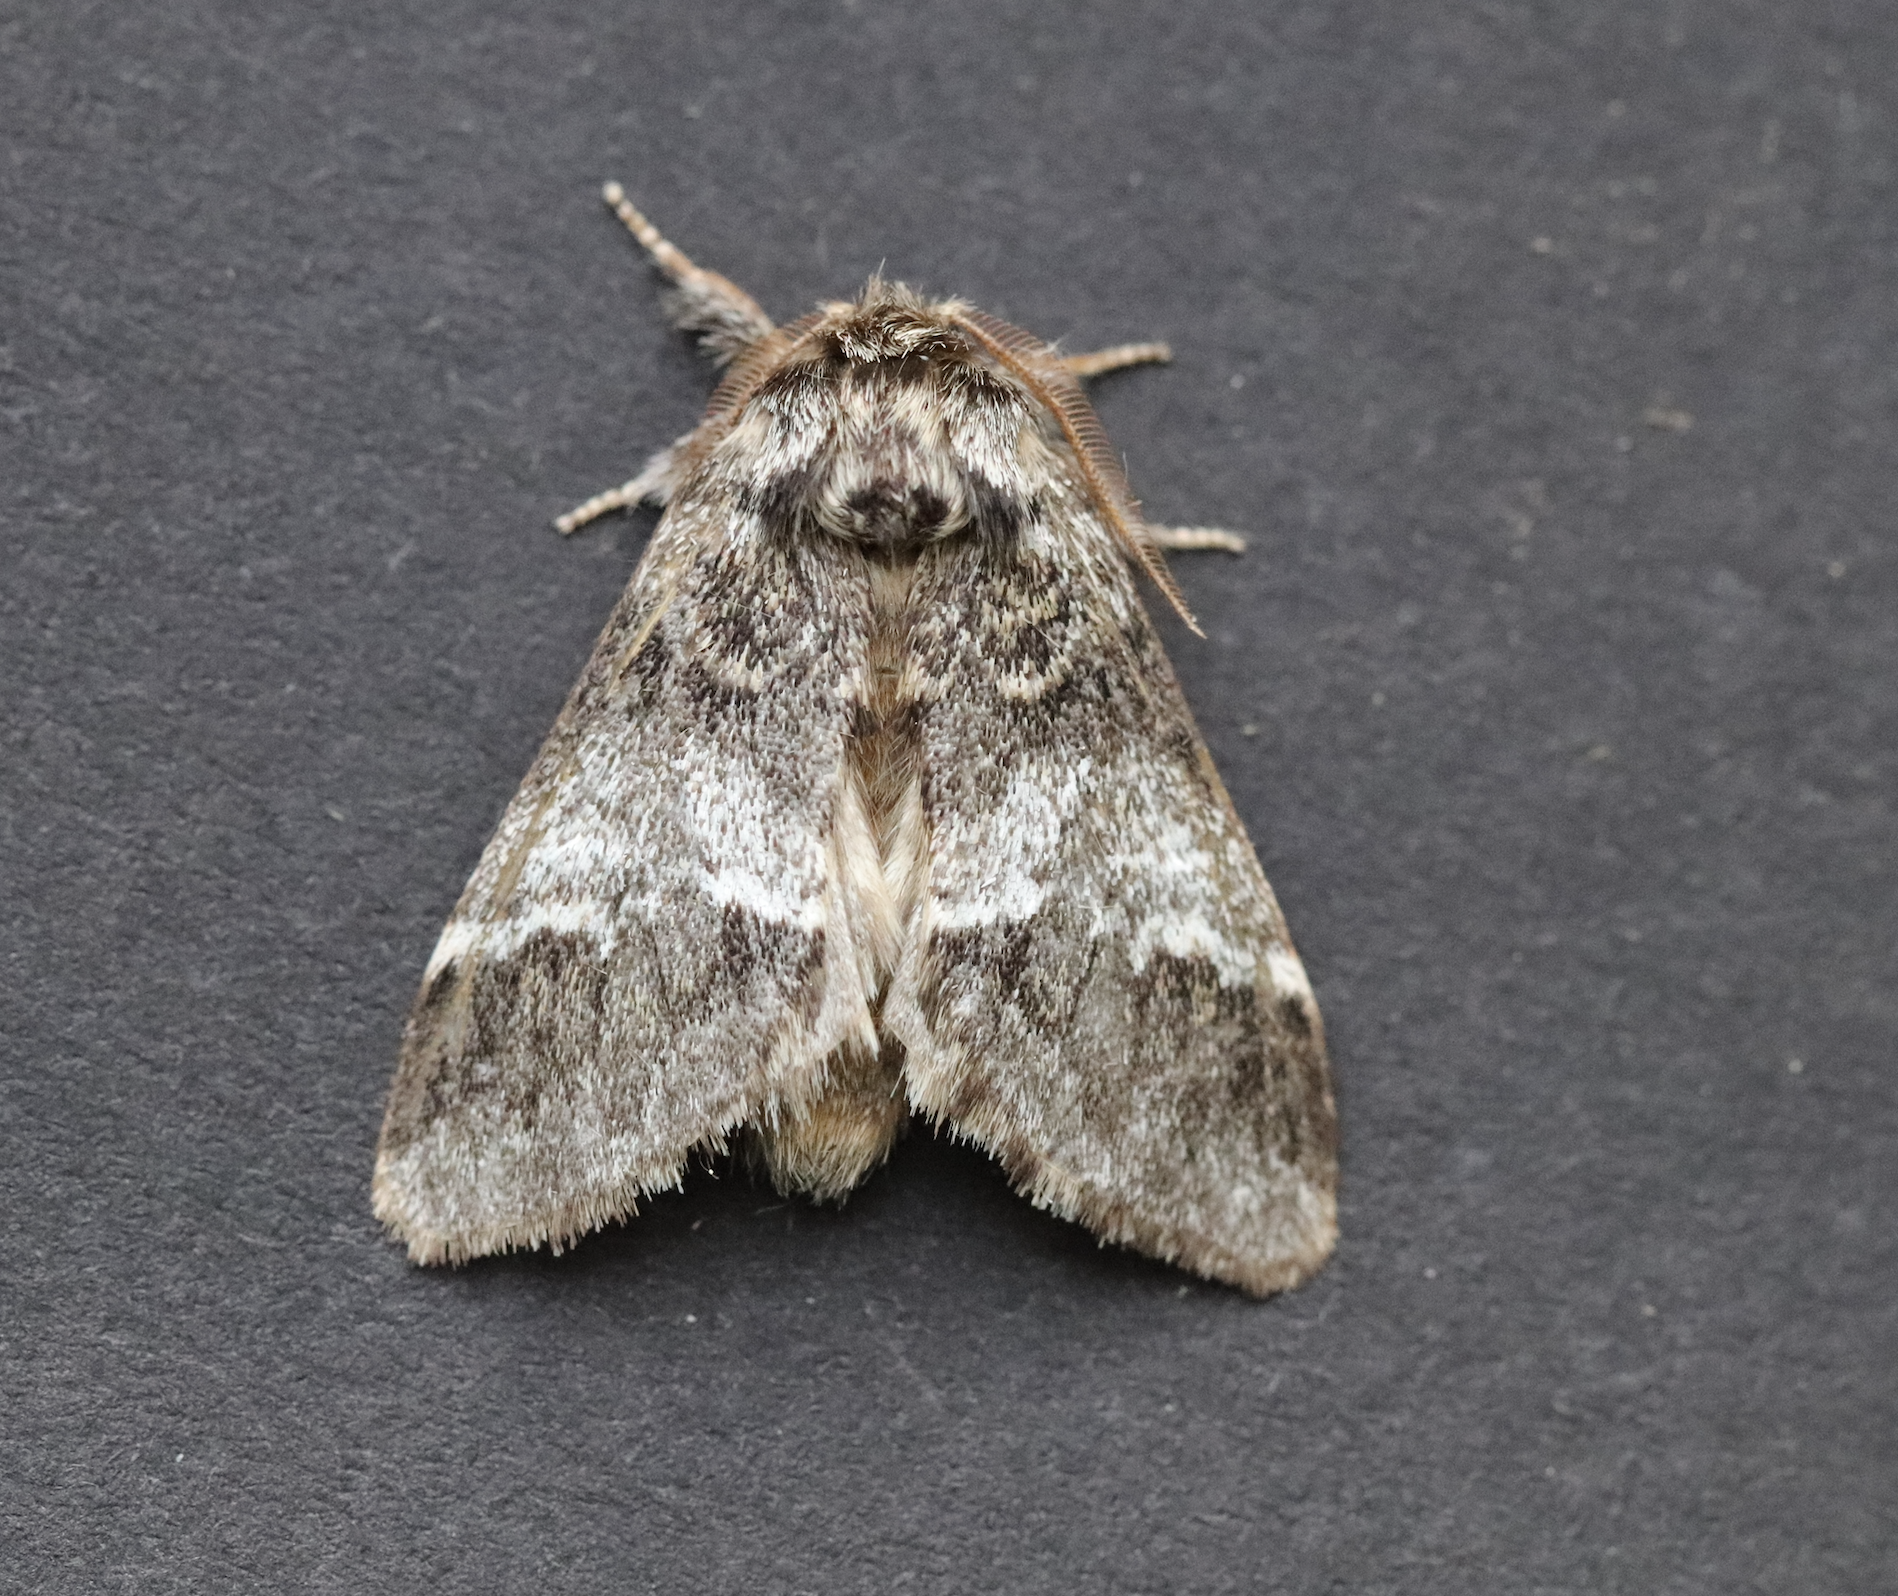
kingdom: Animalia
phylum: Arthropoda
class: Insecta
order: Lepidoptera
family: Notodontidae
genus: Drymonia
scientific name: Drymonia dodonaea
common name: Marbled brown
